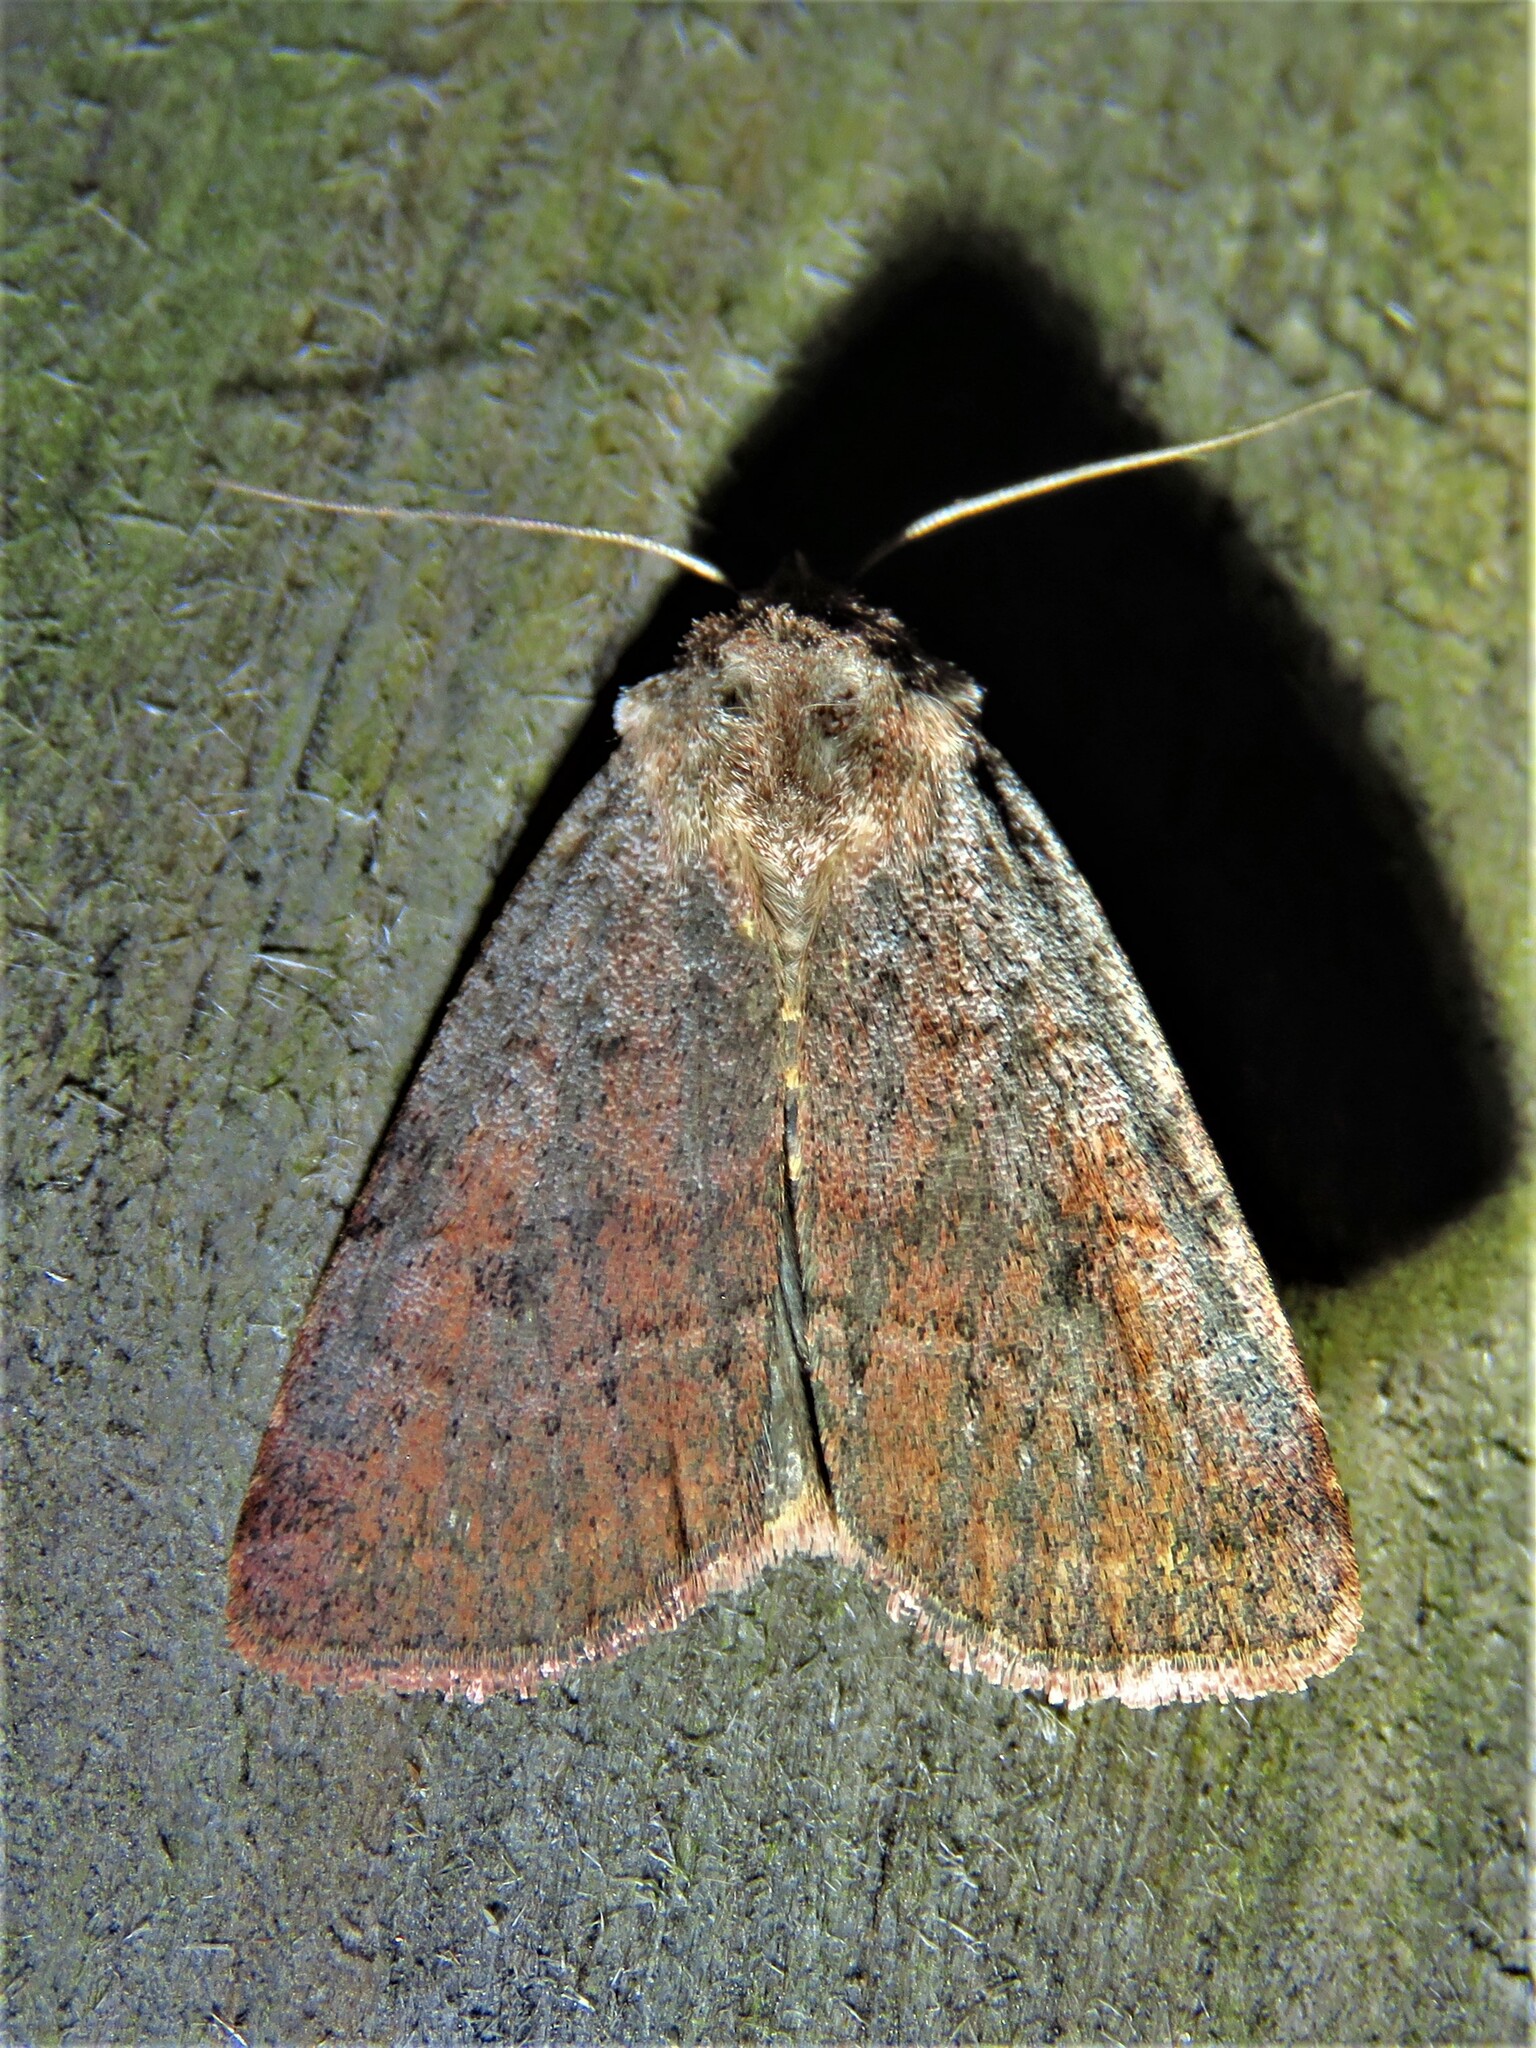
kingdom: Animalia
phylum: Arthropoda
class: Insecta
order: Lepidoptera
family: Noctuidae
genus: Protolampra
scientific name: Protolampra sobrina
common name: Cousin german
